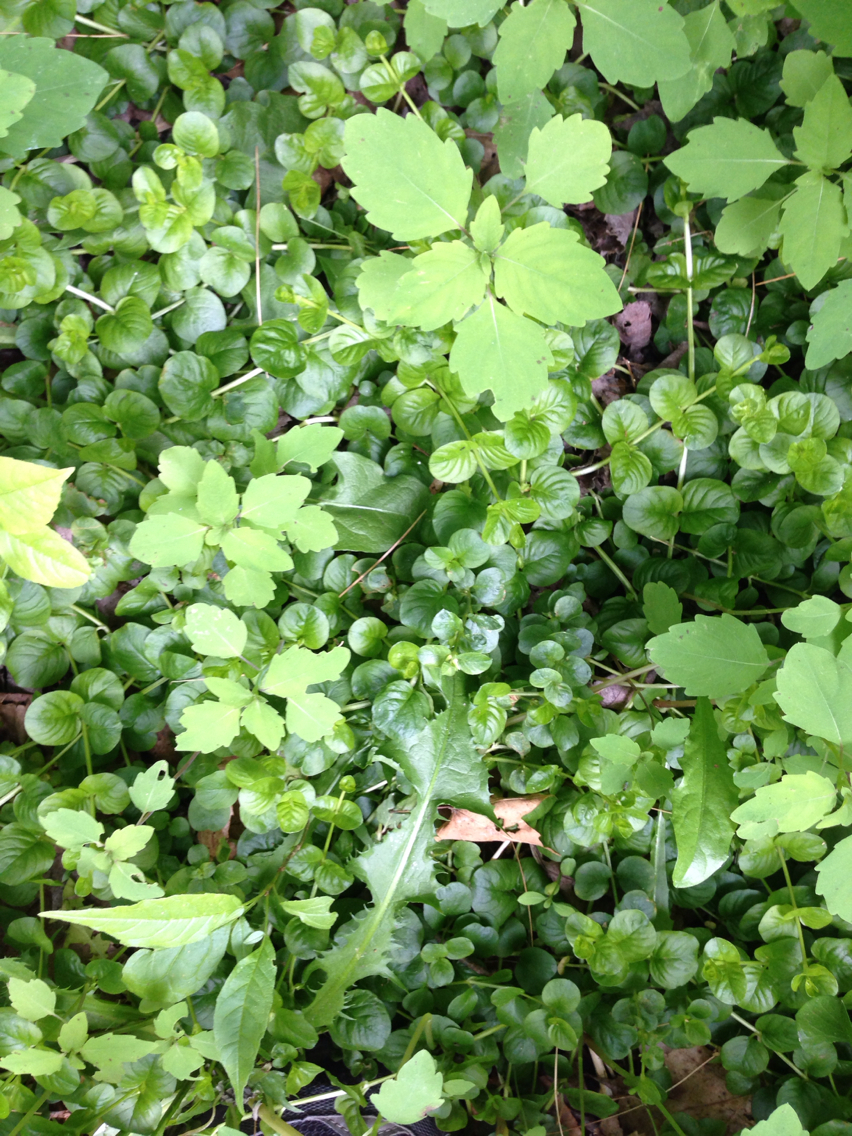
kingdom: Plantae
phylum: Tracheophyta
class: Magnoliopsida
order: Ericales
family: Primulaceae
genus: Lysimachia
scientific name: Lysimachia nummularia
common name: Moneywort
